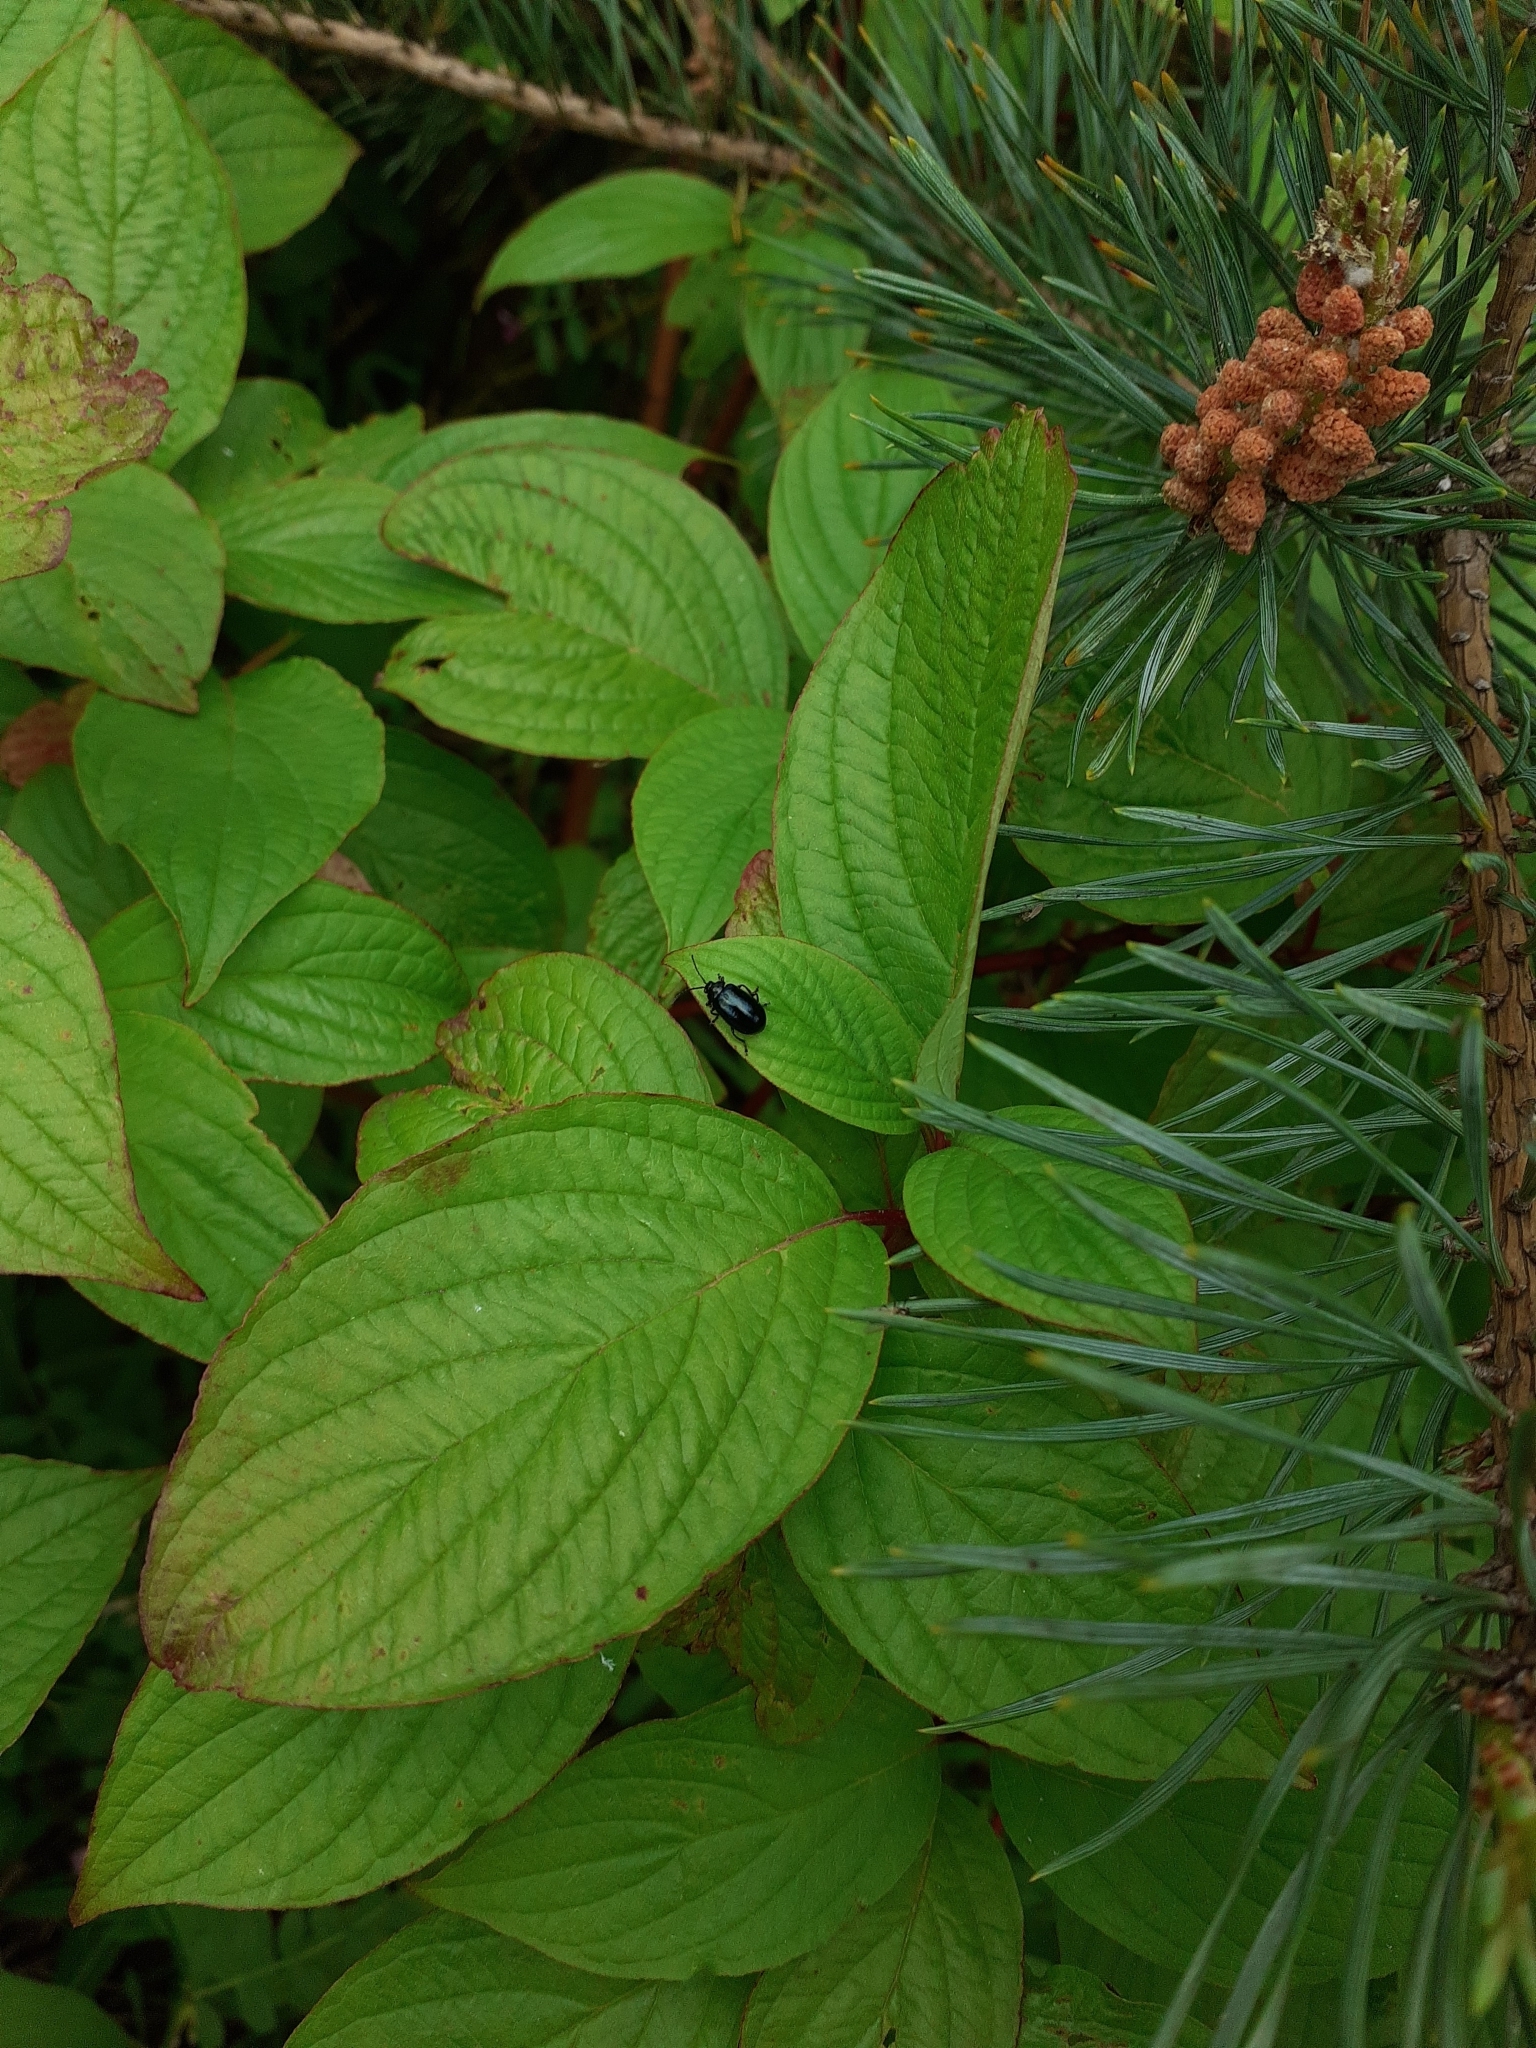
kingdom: Animalia
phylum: Arthropoda
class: Insecta
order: Coleoptera
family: Chrysomelidae
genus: Agelastica
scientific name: Agelastica alni
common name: Alder leaf beetle
